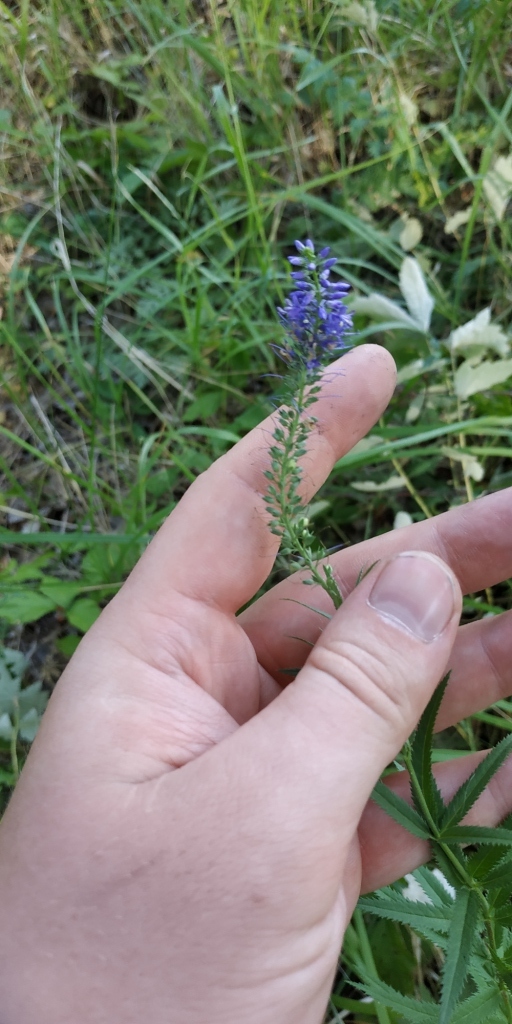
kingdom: Plantae
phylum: Tracheophyta
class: Magnoliopsida
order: Lamiales
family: Plantaginaceae
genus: Veronica
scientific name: Veronica longifolia
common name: Garden speedwell
